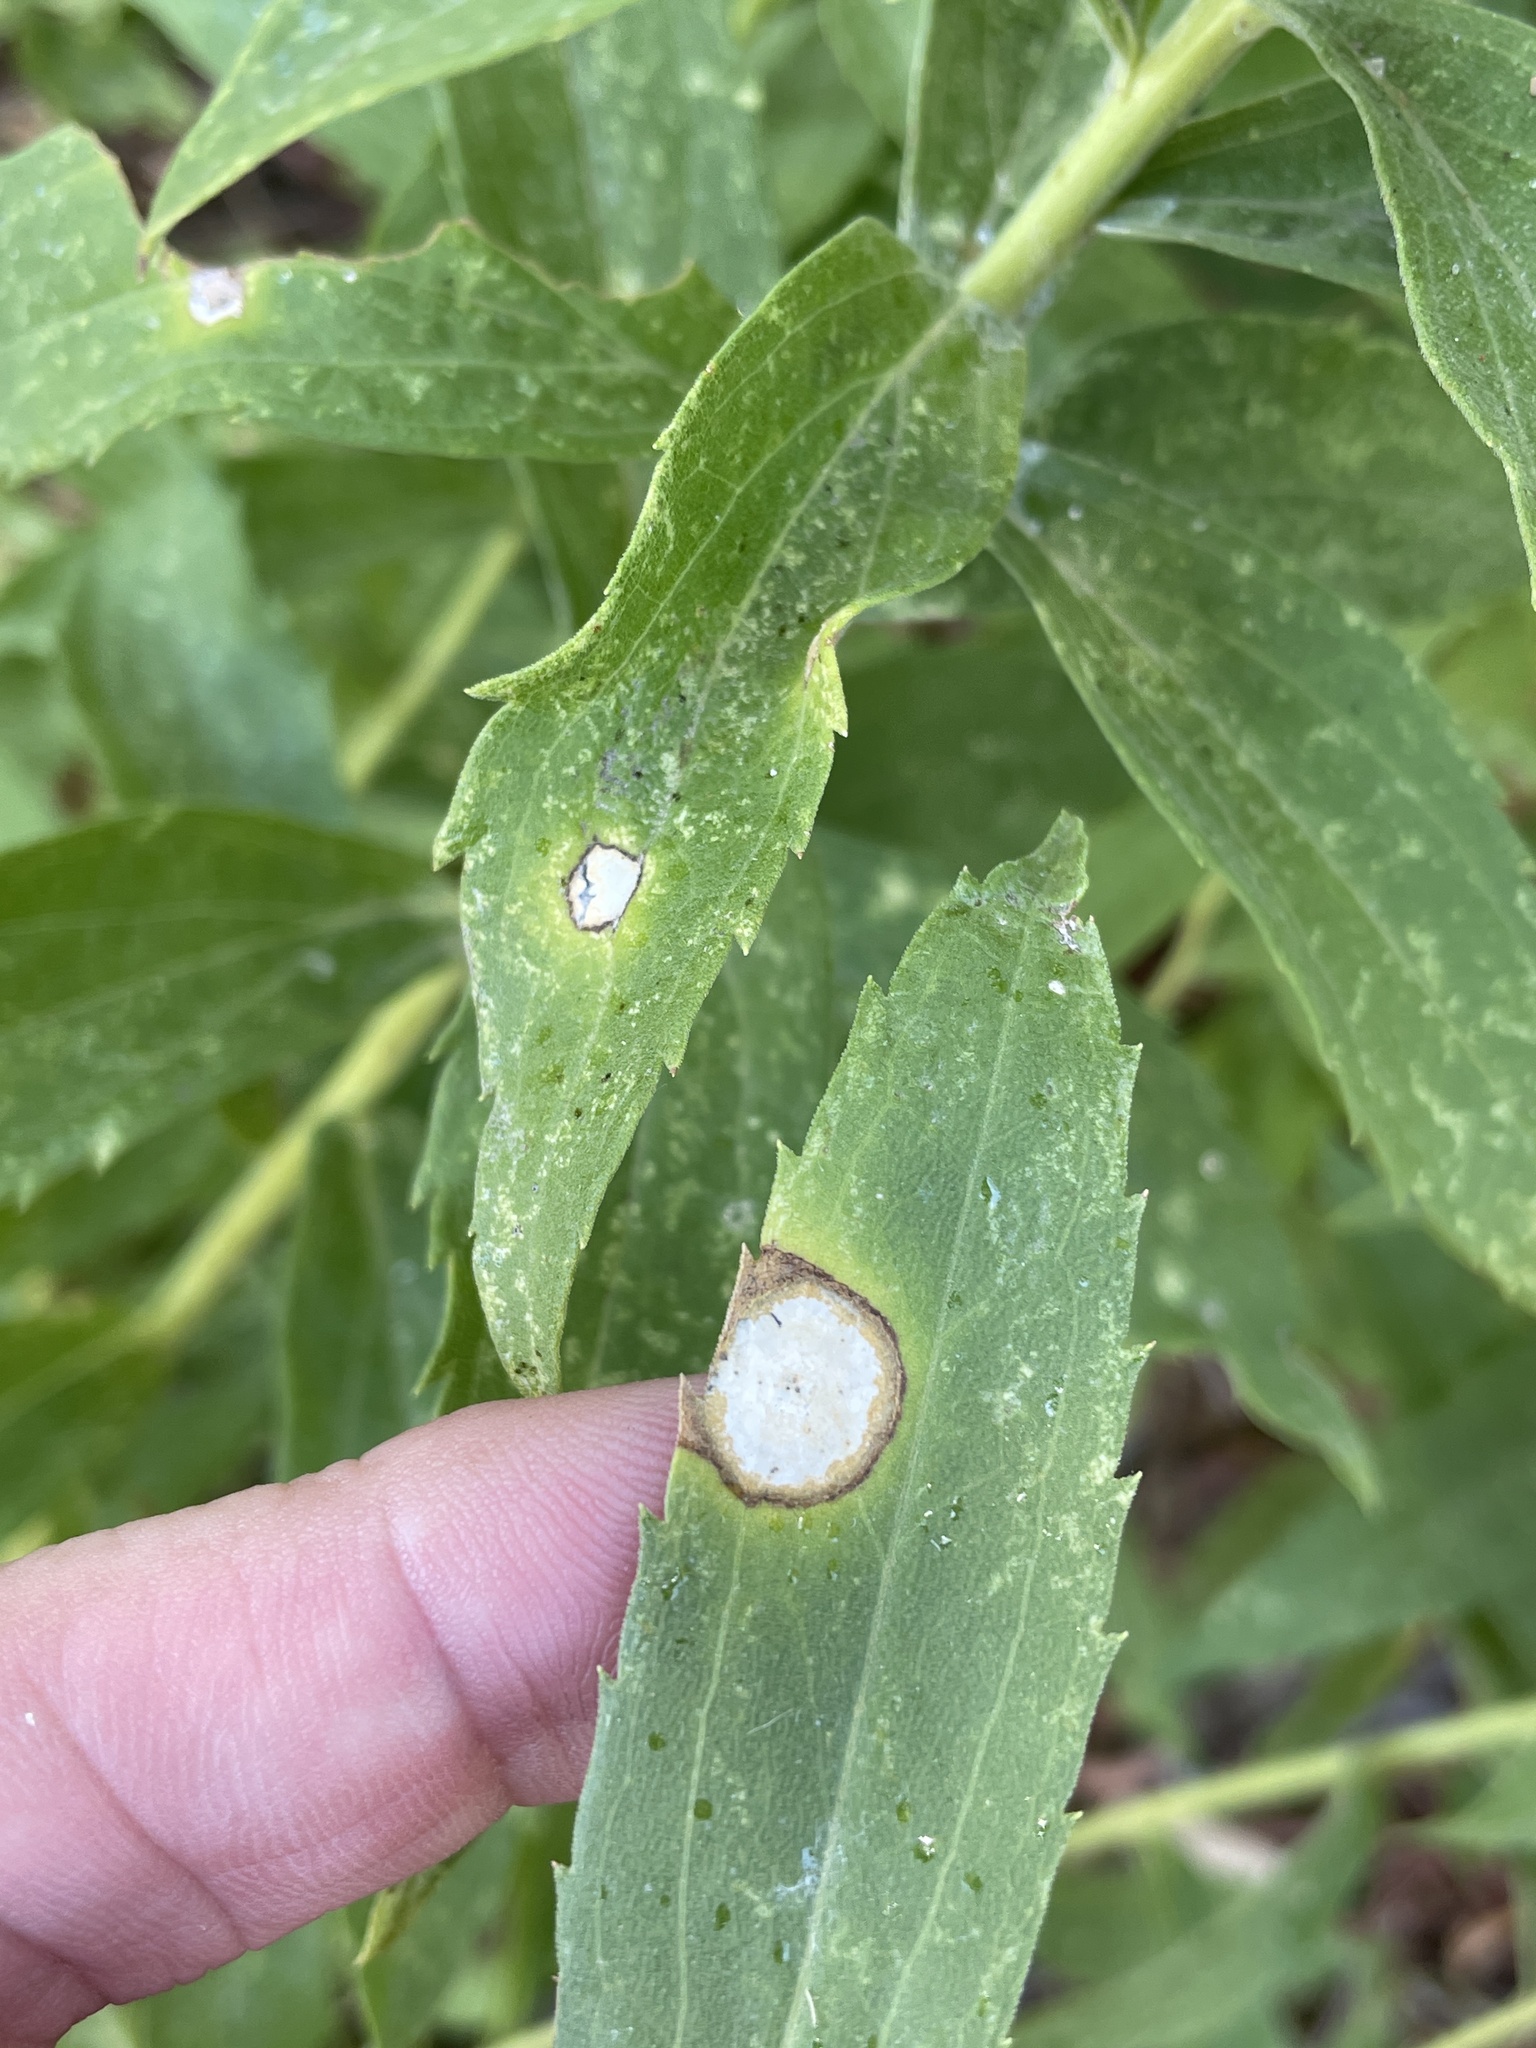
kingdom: Animalia
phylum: Arthropoda
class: Insecta
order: Diptera
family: Cecidomyiidae
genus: Asteromyia
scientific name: Asteromyia carbonifera
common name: Carbonifera goldenrod gall midge
